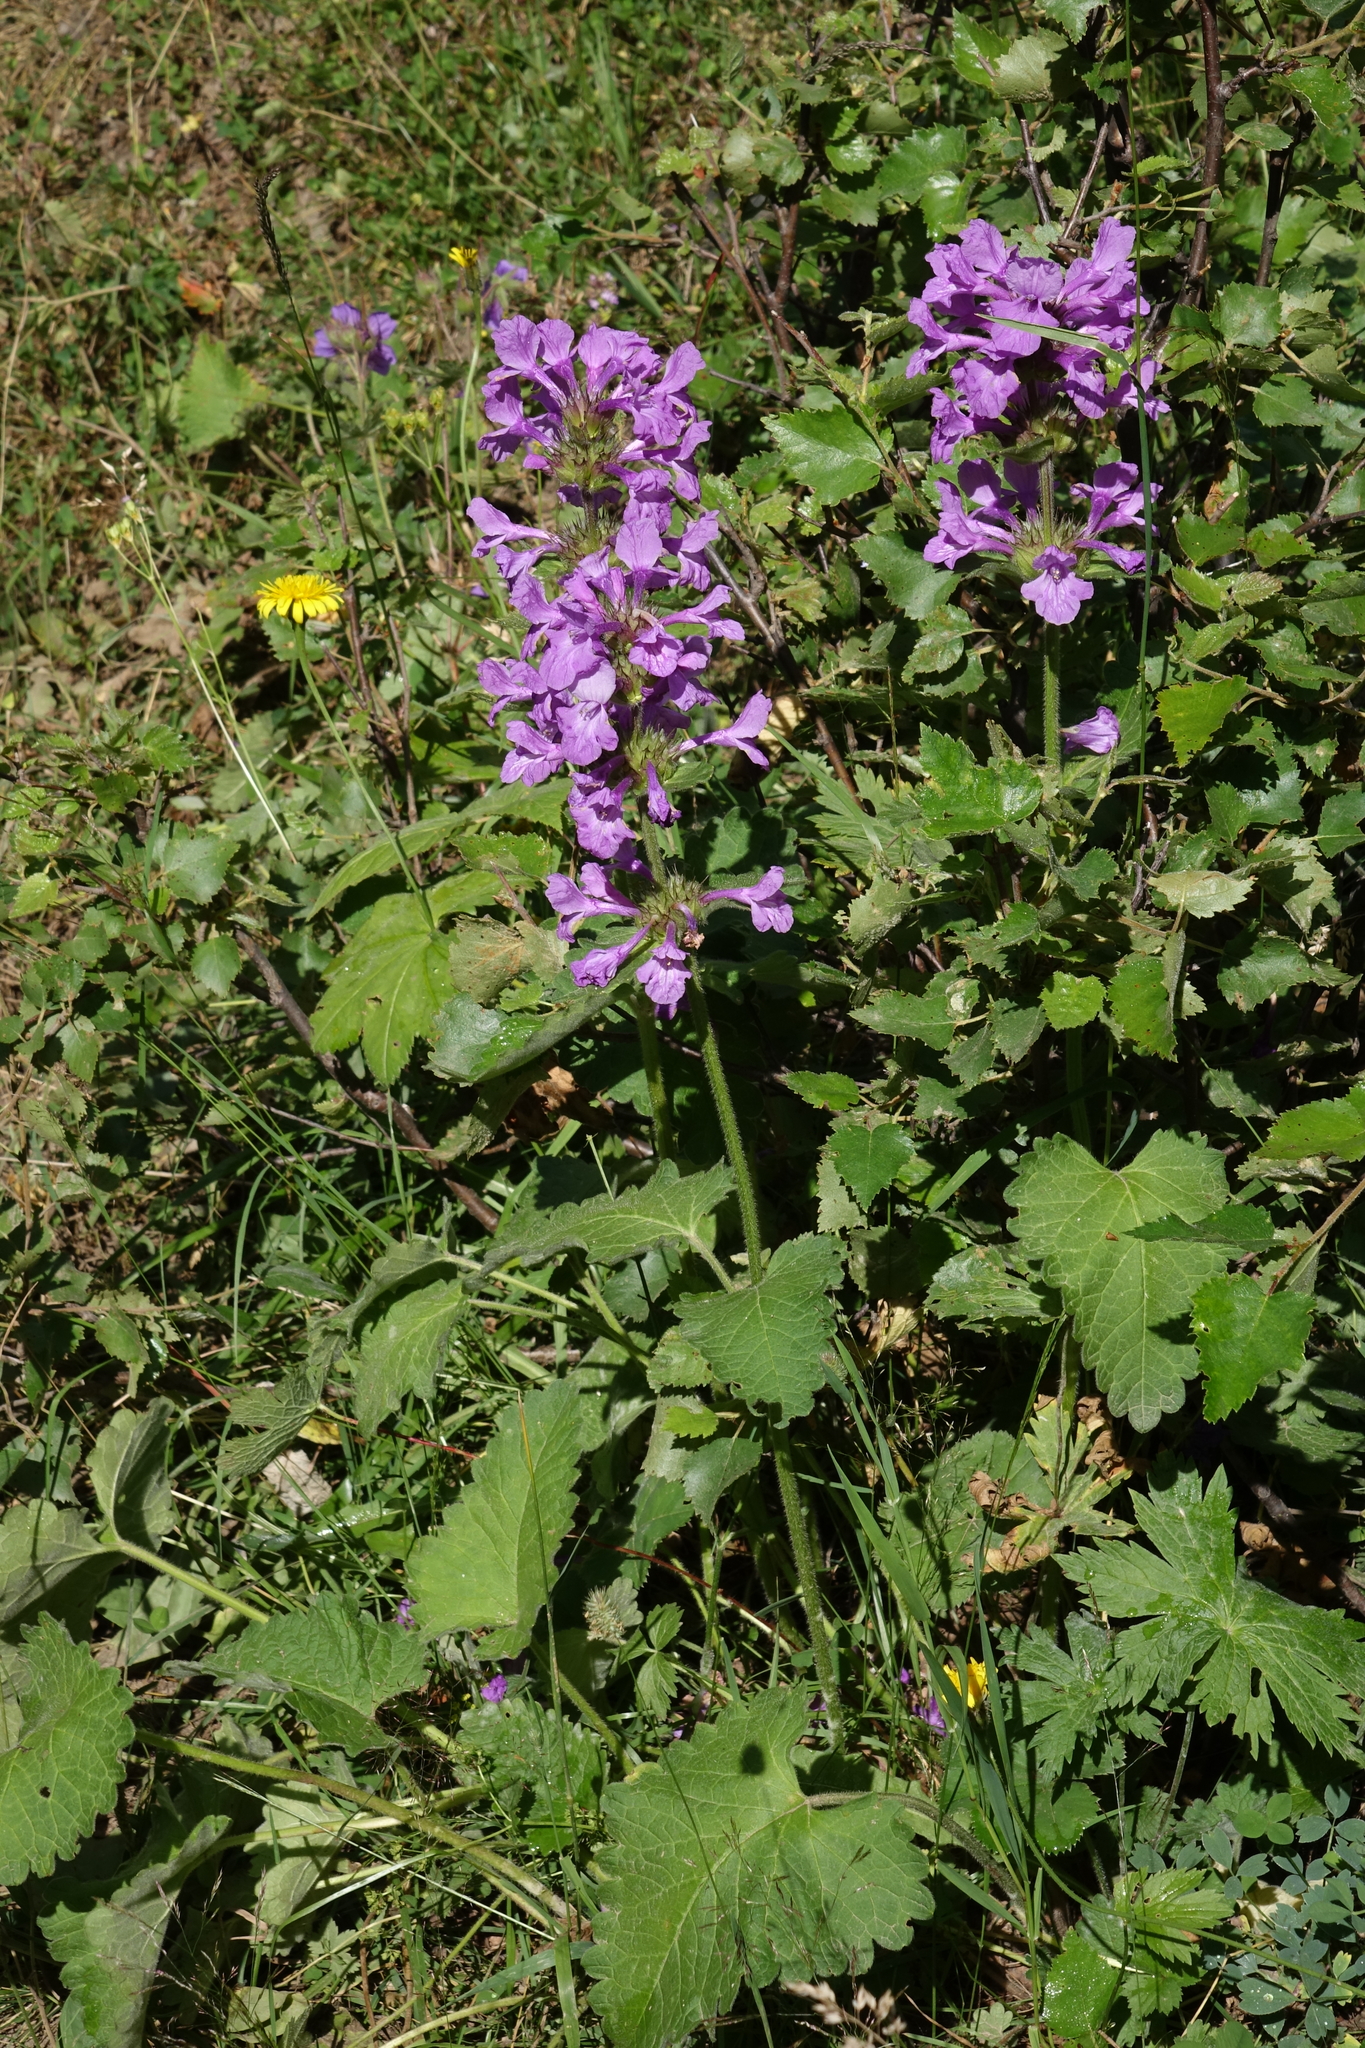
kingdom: Plantae
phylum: Tracheophyta
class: Magnoliopsida
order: Lamiales
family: Lamiaceae
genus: Betonica
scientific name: Betonica macrantha
